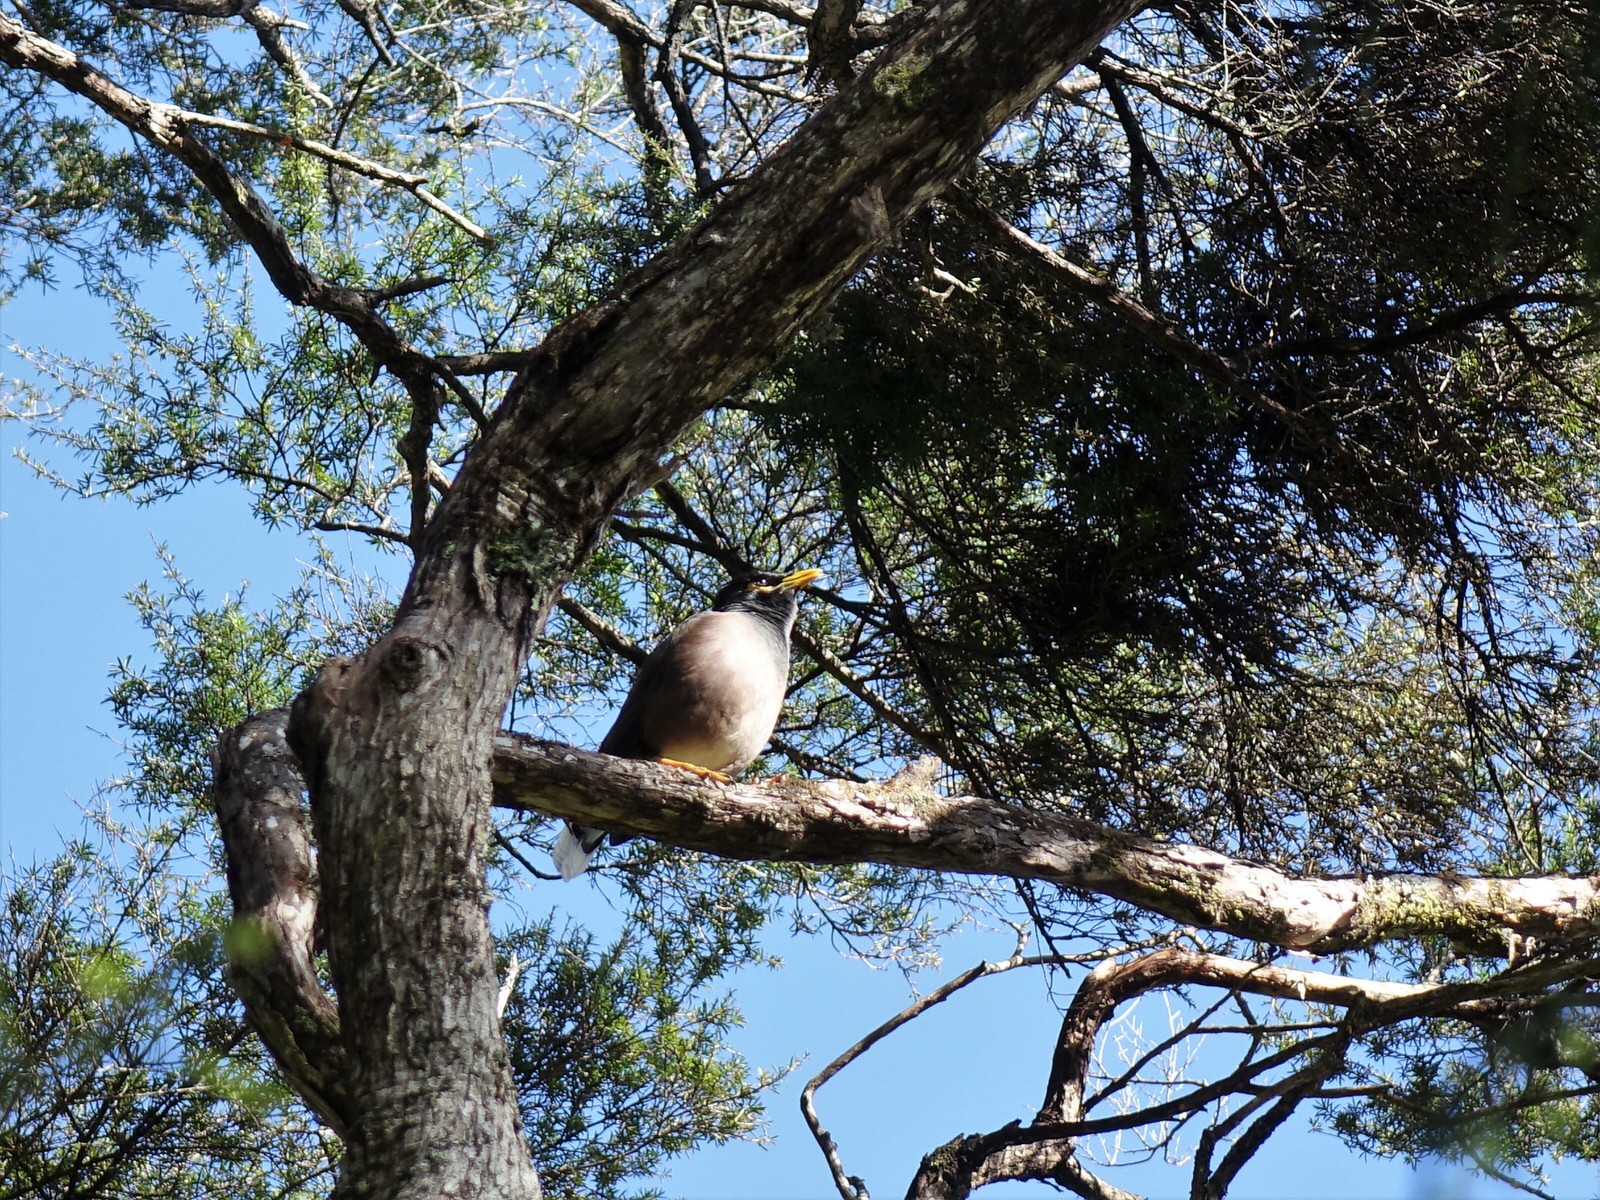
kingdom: Animalia
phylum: Chordata
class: Aves
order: Passeriformes
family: Sturnidae
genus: Acridotheres
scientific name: Acridotheres tristis
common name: Common myna
